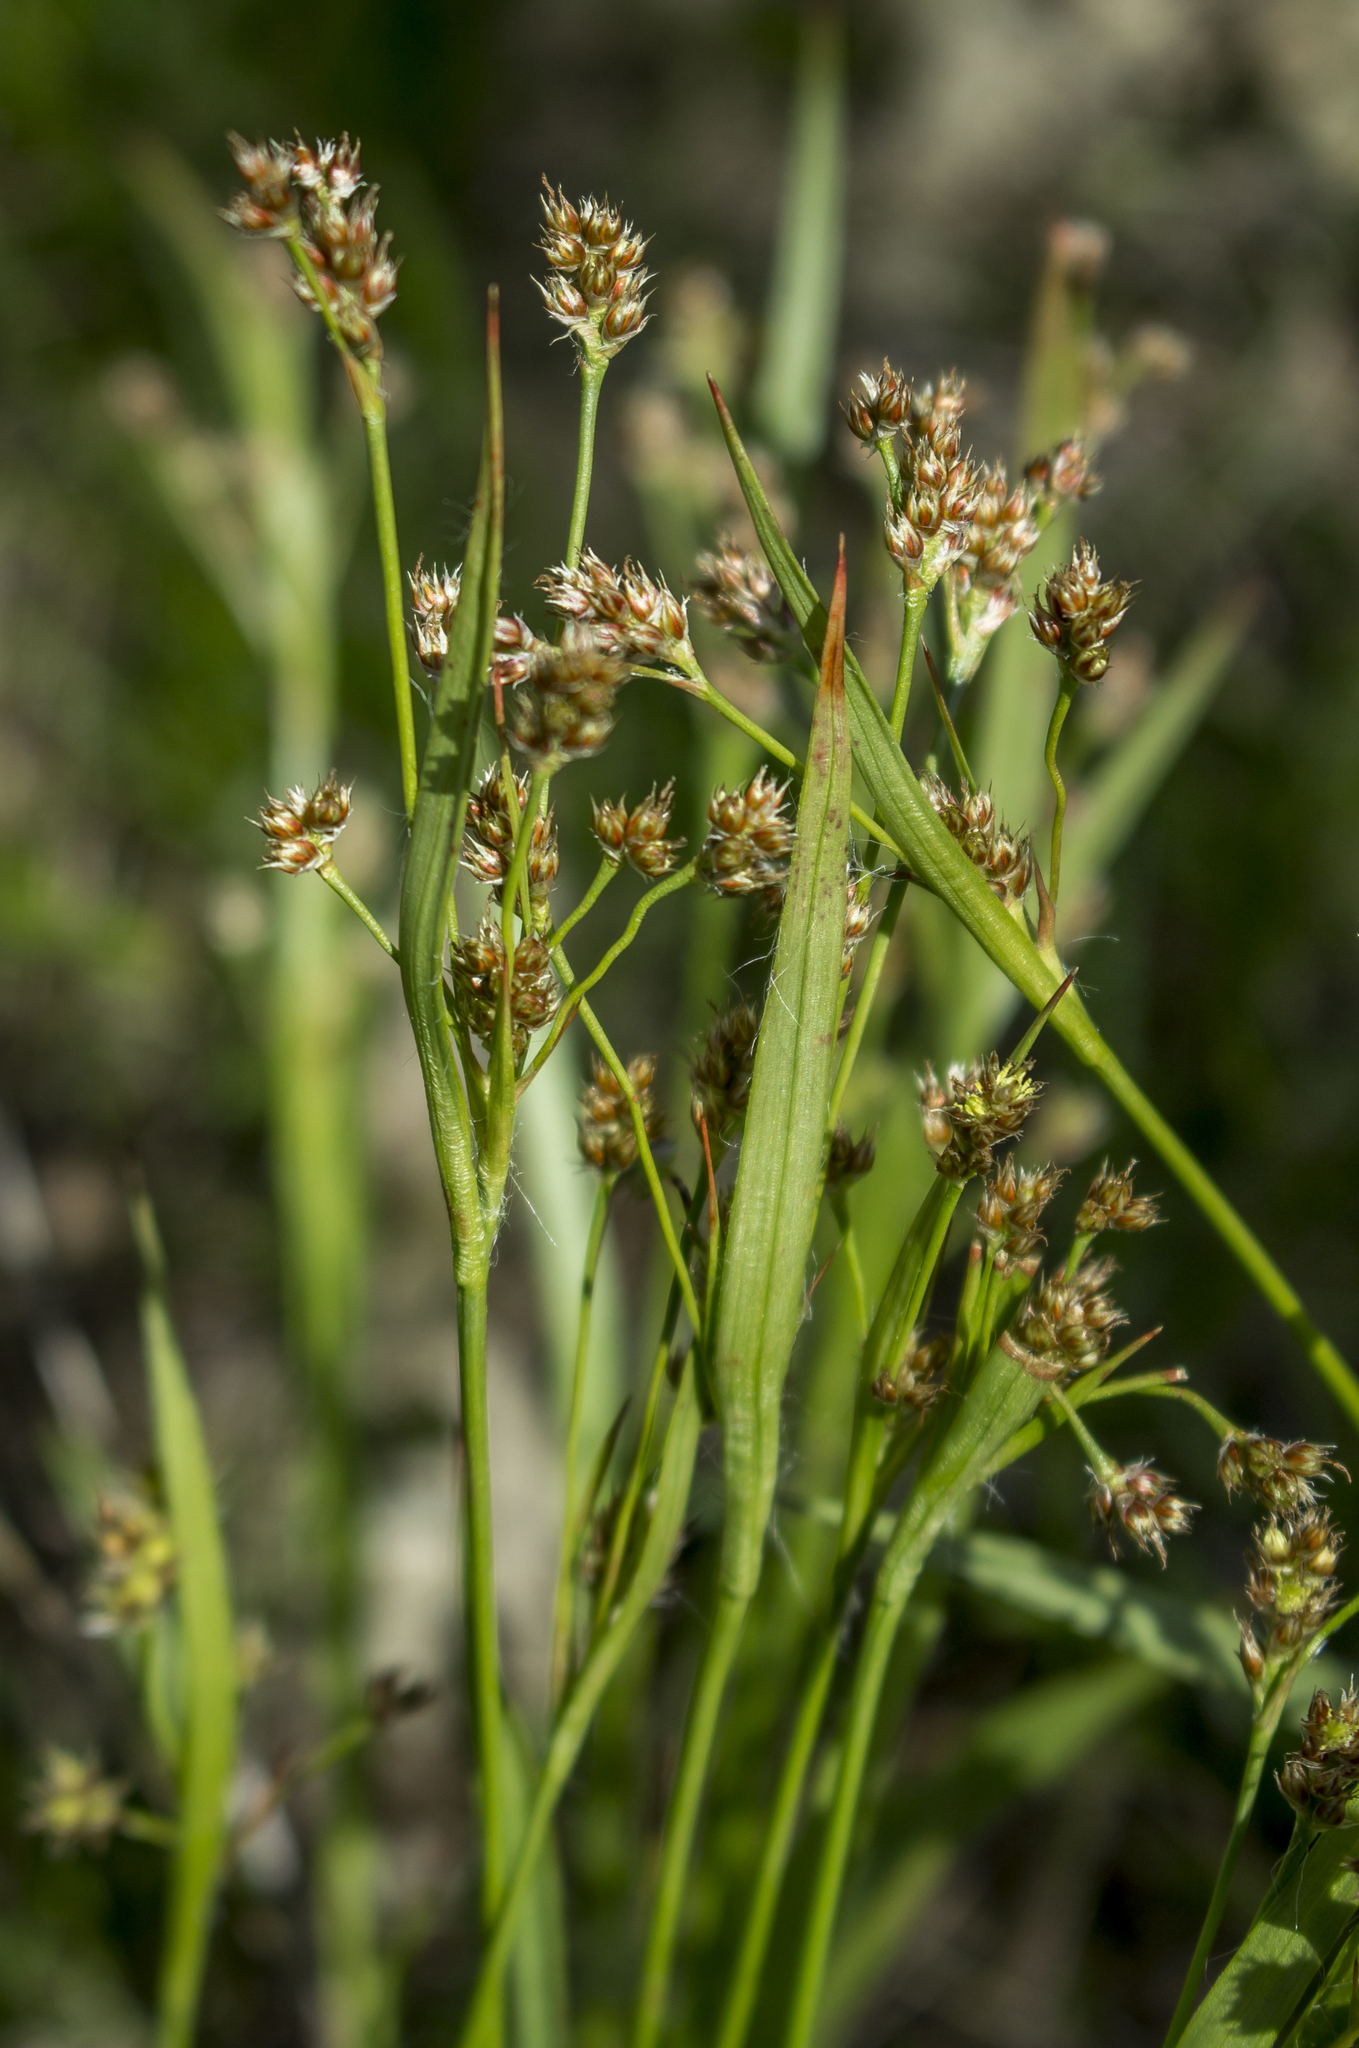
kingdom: Plantae
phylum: Tracheophyta
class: Liliopsida
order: Poales
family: Juncaceae
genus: Luzula
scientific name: Luzula multiflora
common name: Heath wood-rush
